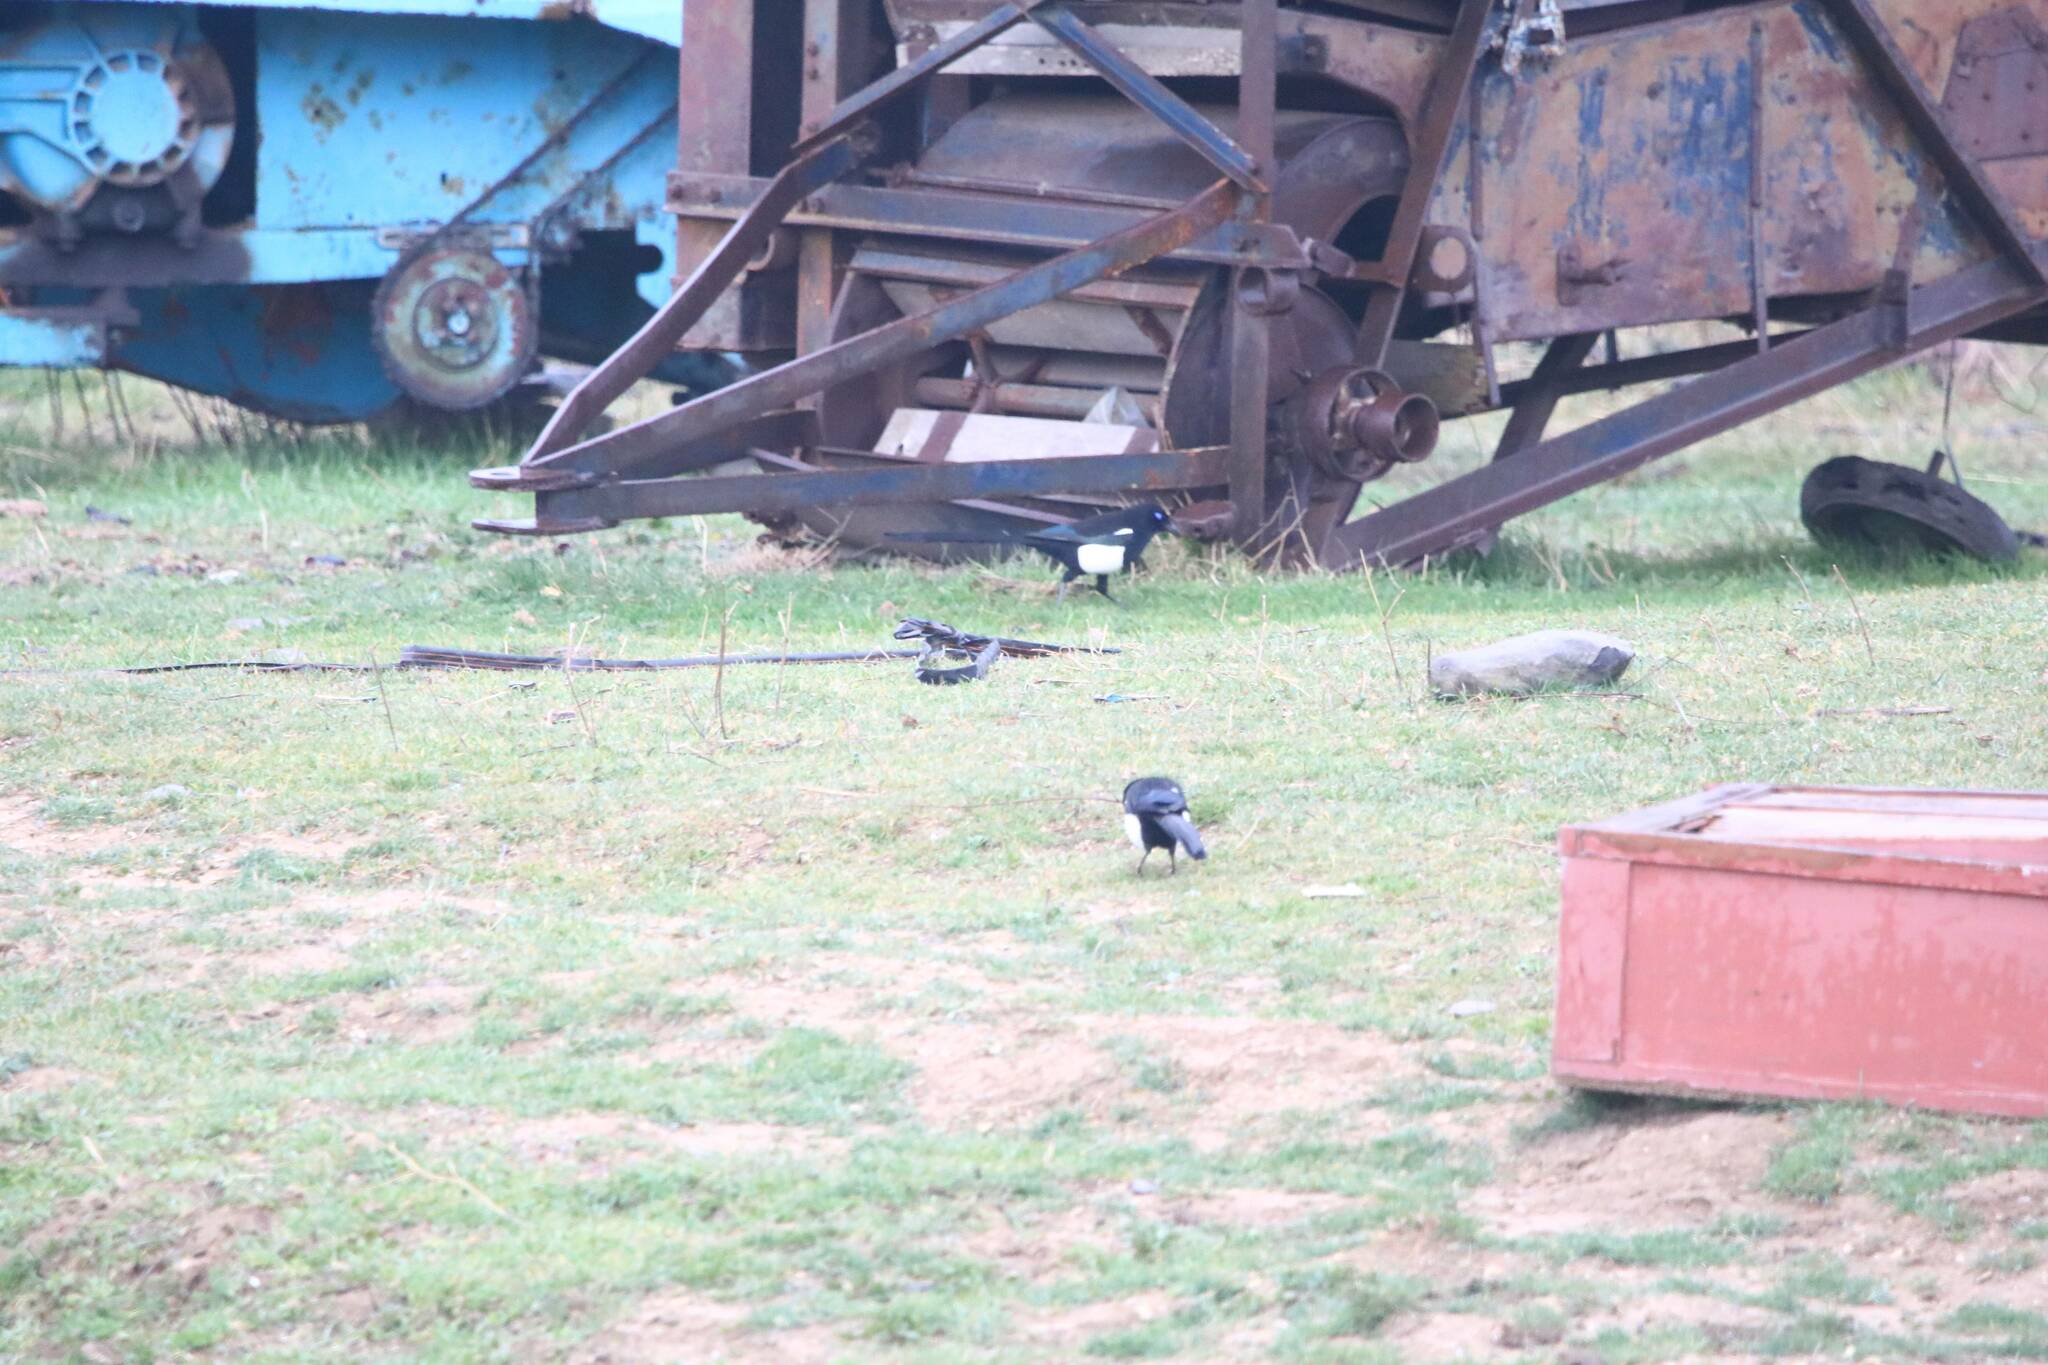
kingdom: Animalia
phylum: Chordata
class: Aves
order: Passeriformes
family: Corvidae
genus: Pica
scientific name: Pica mauritanica
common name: Maghreb magpie
